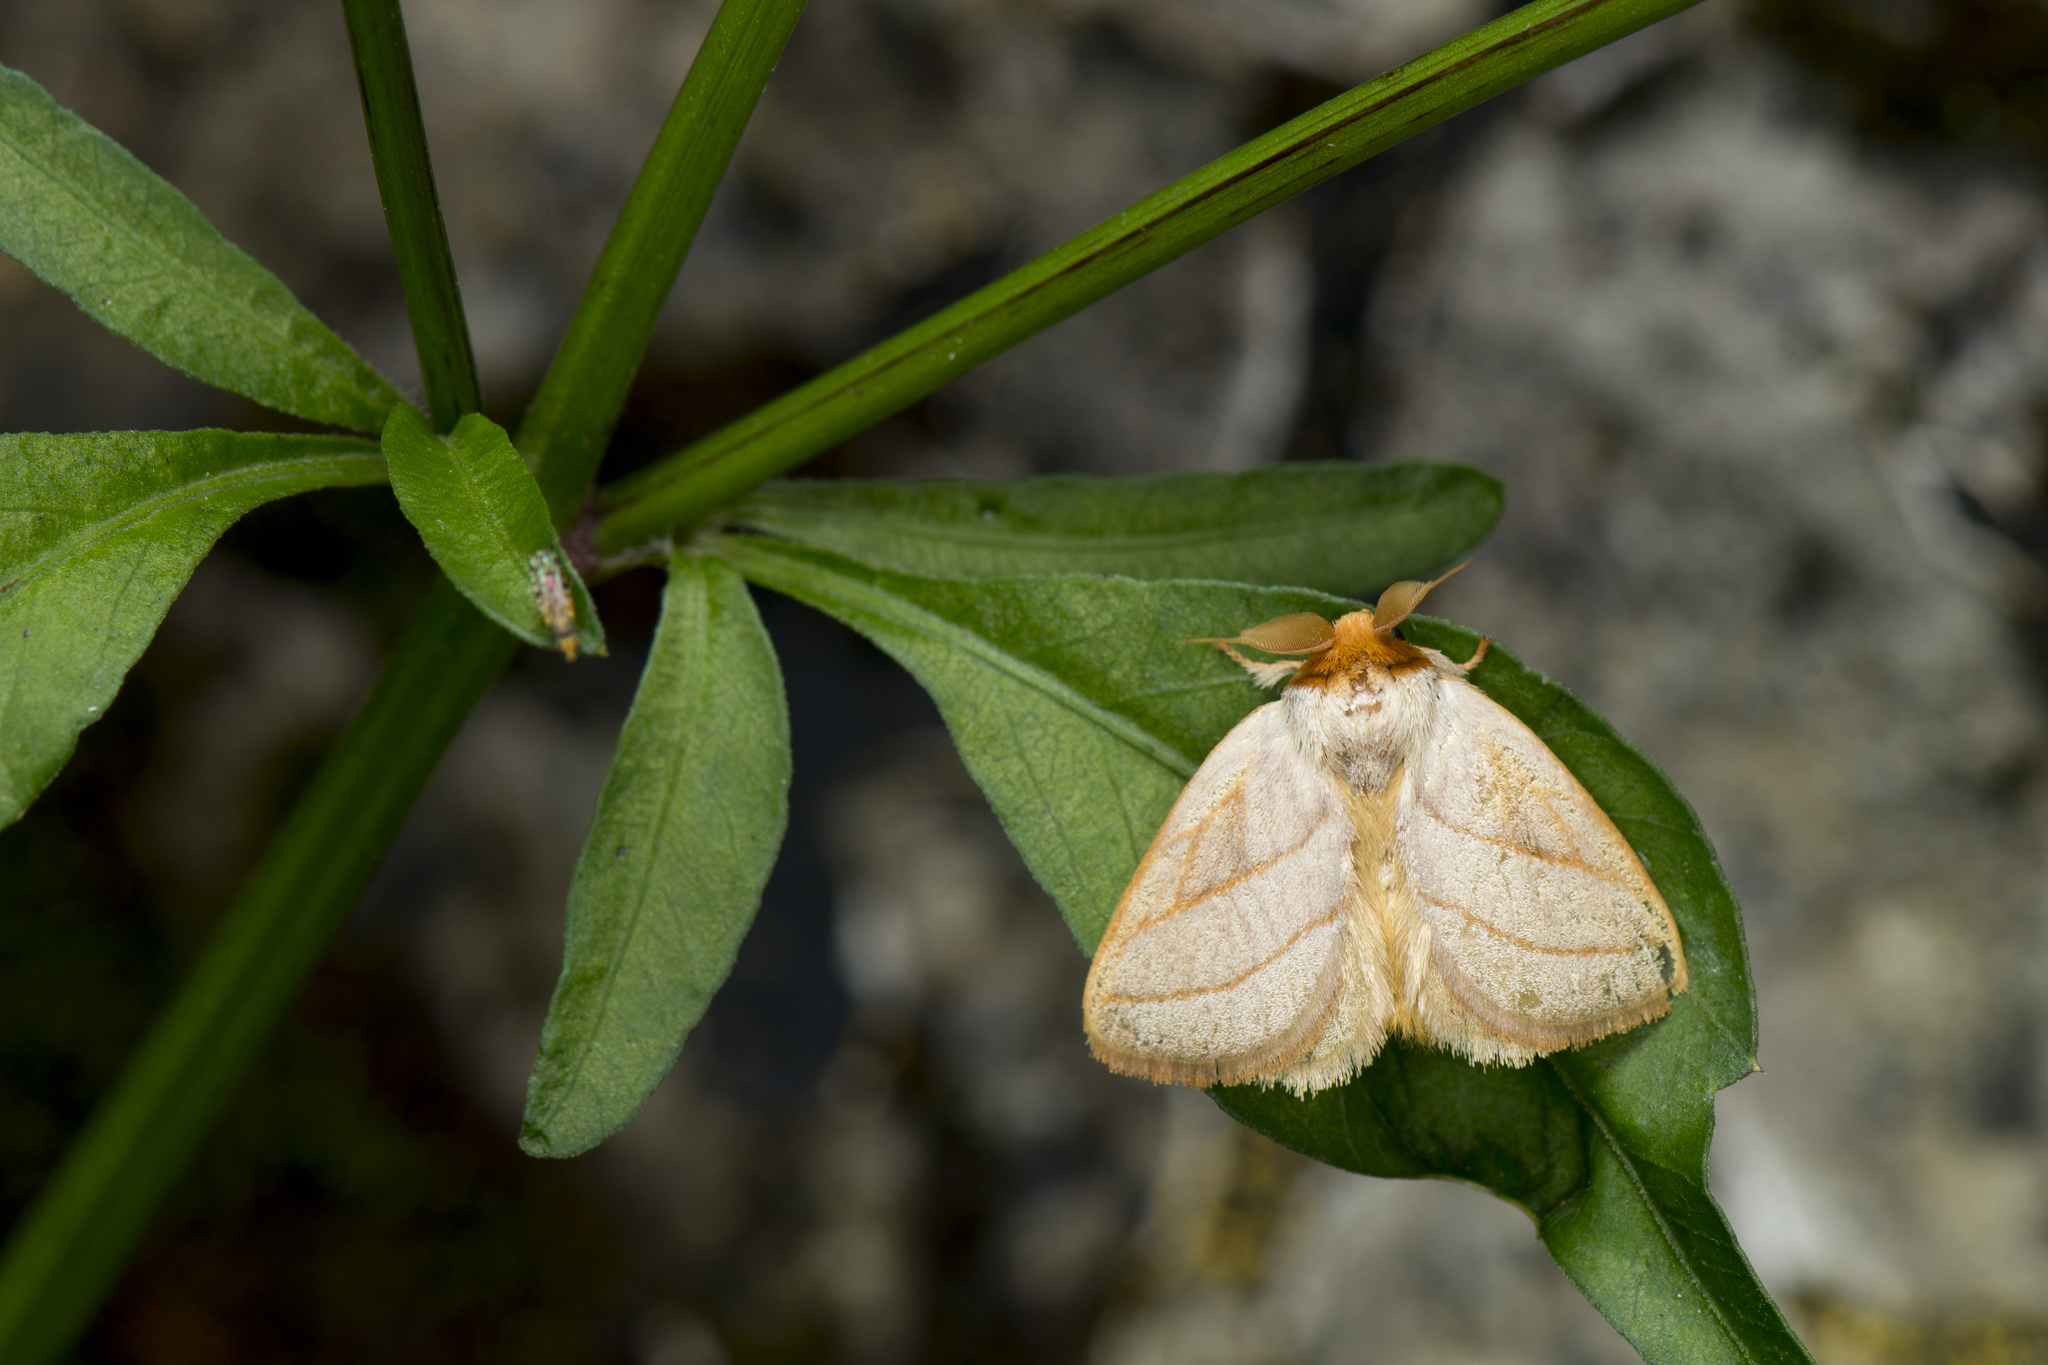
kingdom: Animalia
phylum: Arthropoda
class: Insecta
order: Lepidoptera
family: Limacodidae
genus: Cania
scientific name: Cania heppneri
